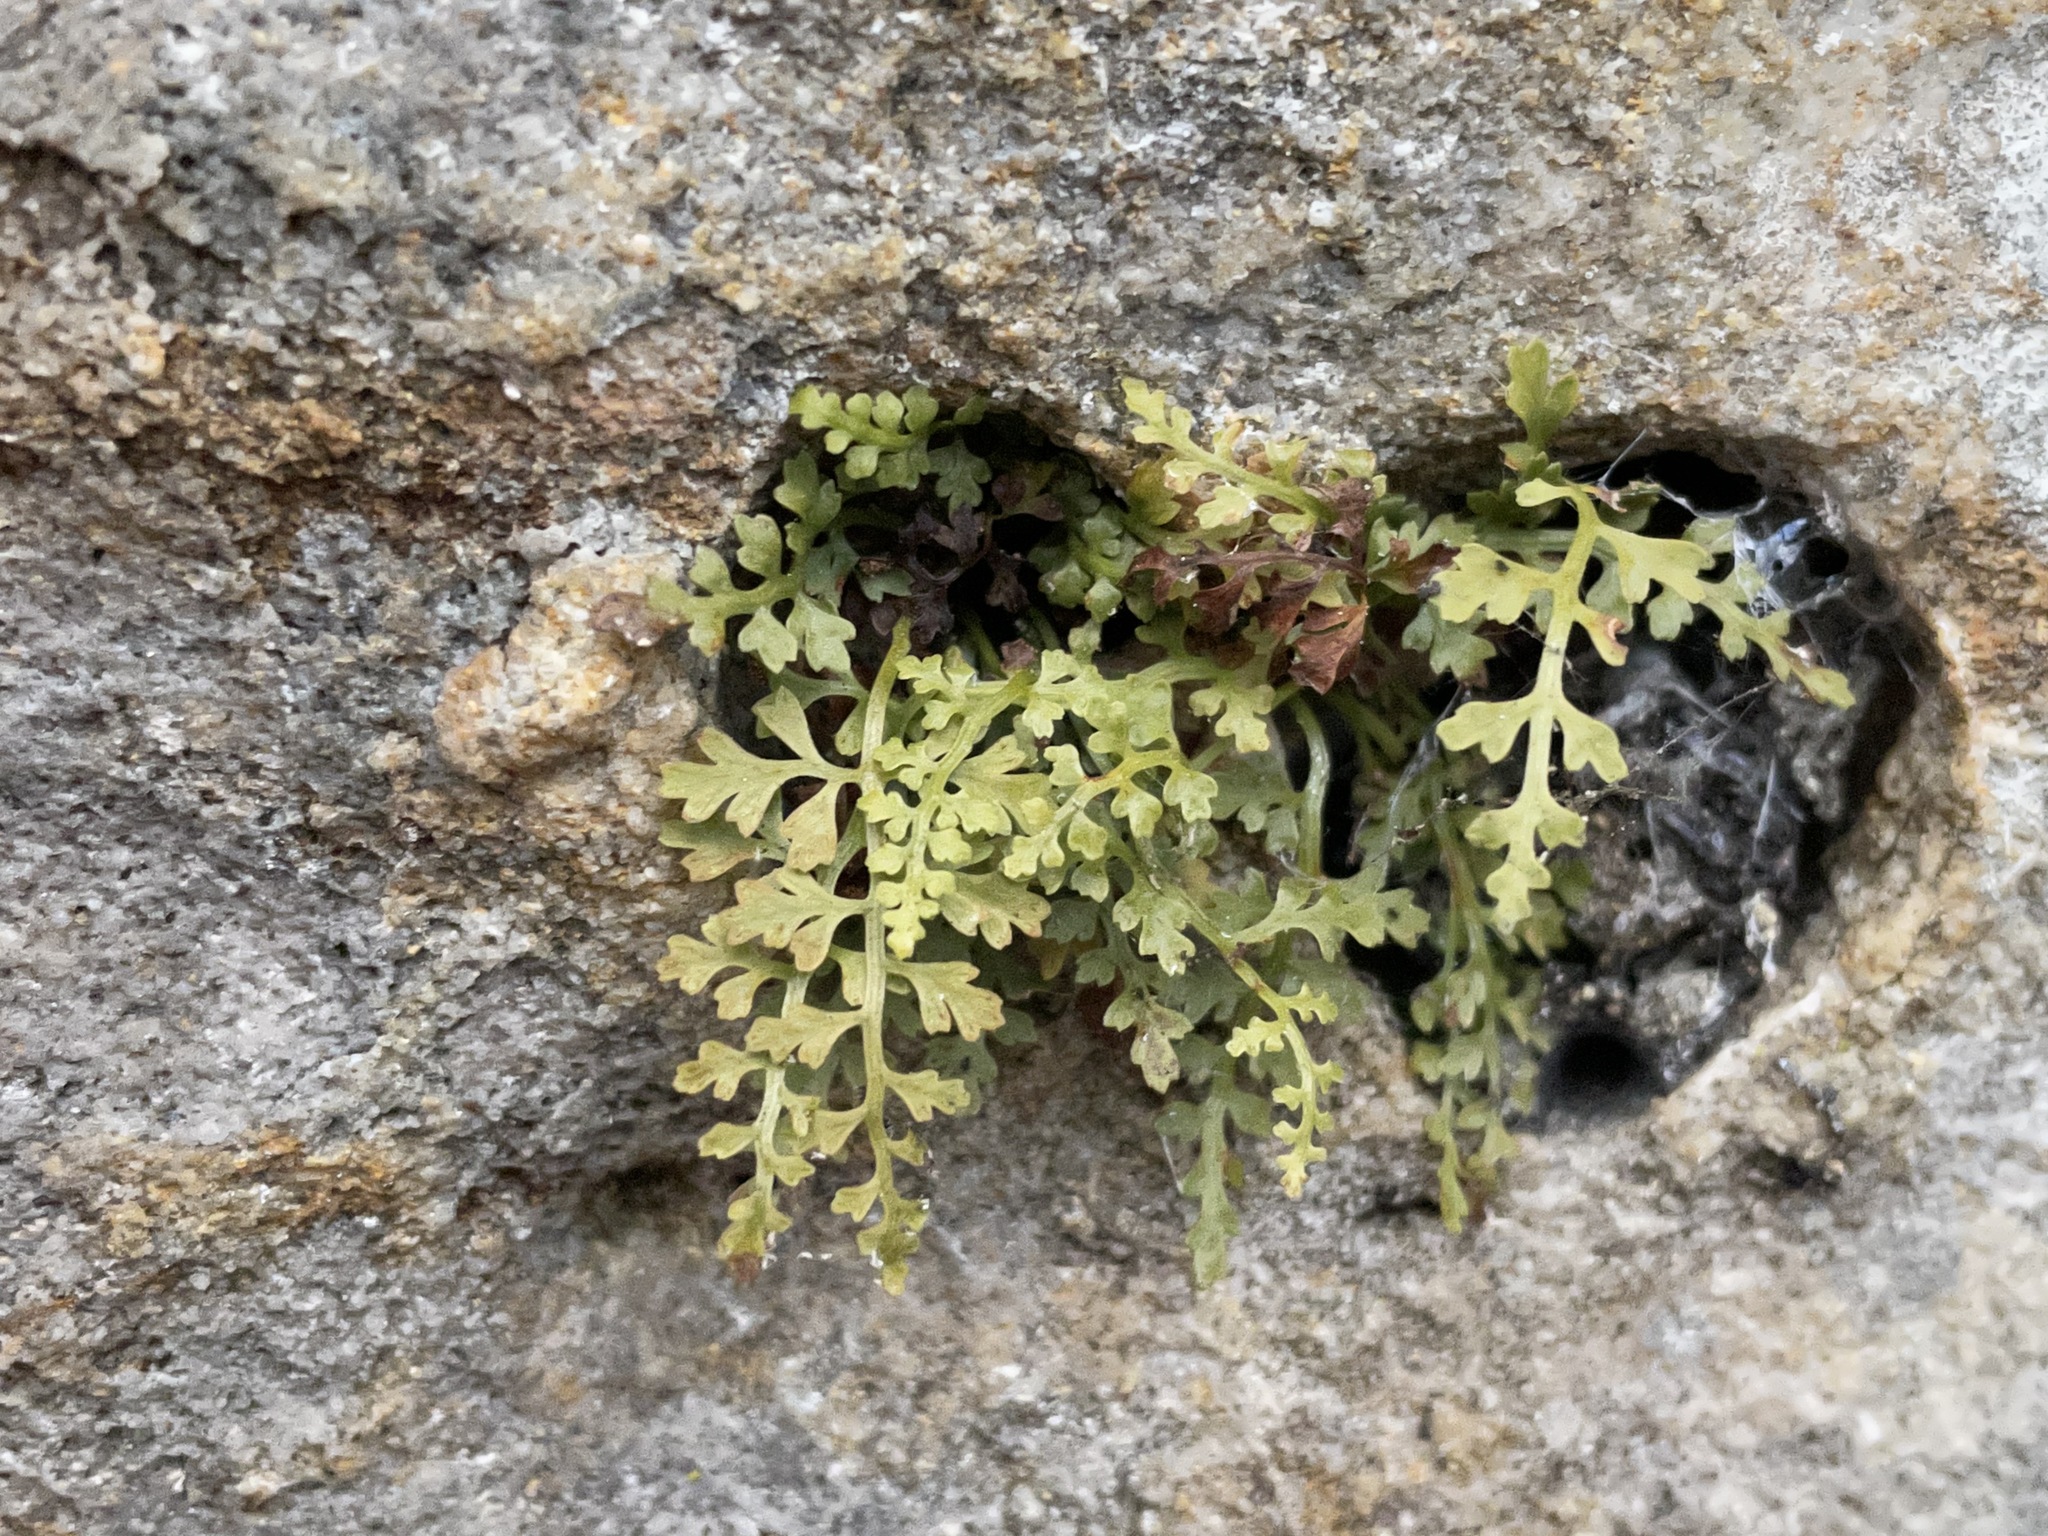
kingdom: Plantae
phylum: Tracheophyta
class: Polypodiopsida
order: Polypodiales
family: Aspleniaceae
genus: Asplenium
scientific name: Asplenium montanum
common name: Mountain spleenwort
